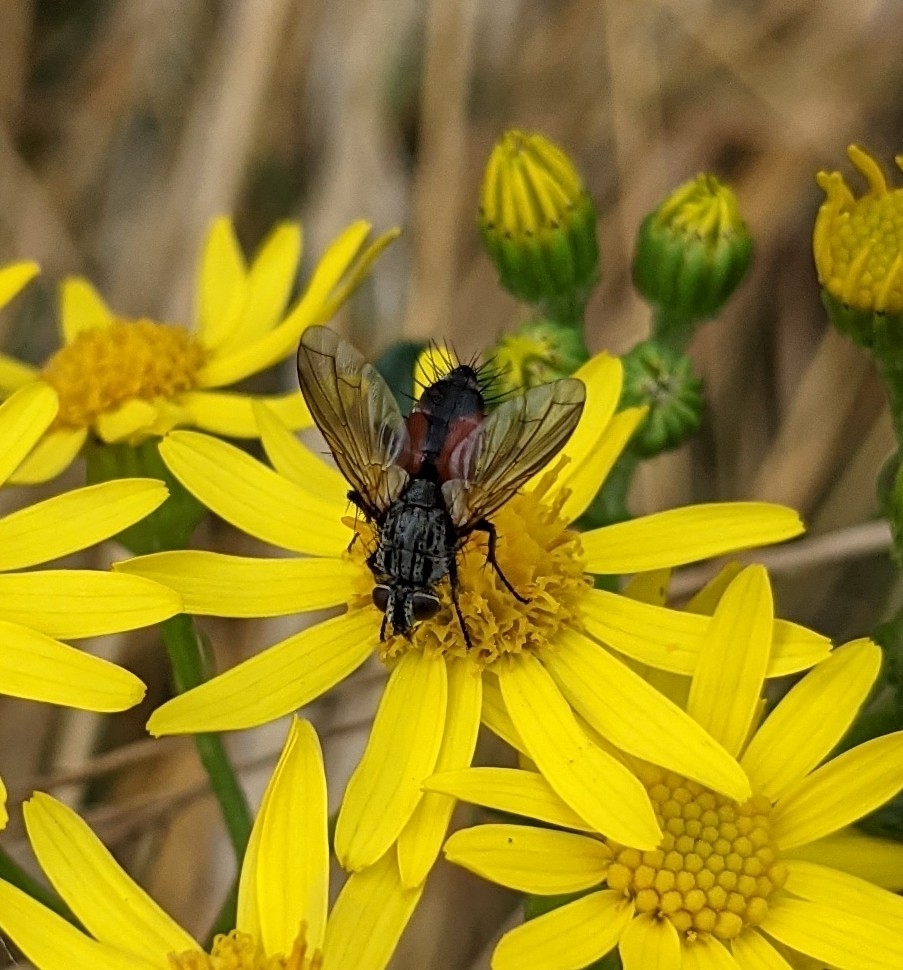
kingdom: Animalia
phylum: Arthropoda
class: Insecta
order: Diptera
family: Tachinidae
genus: Eriothrix
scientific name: Eriothrix rufomaculatus
